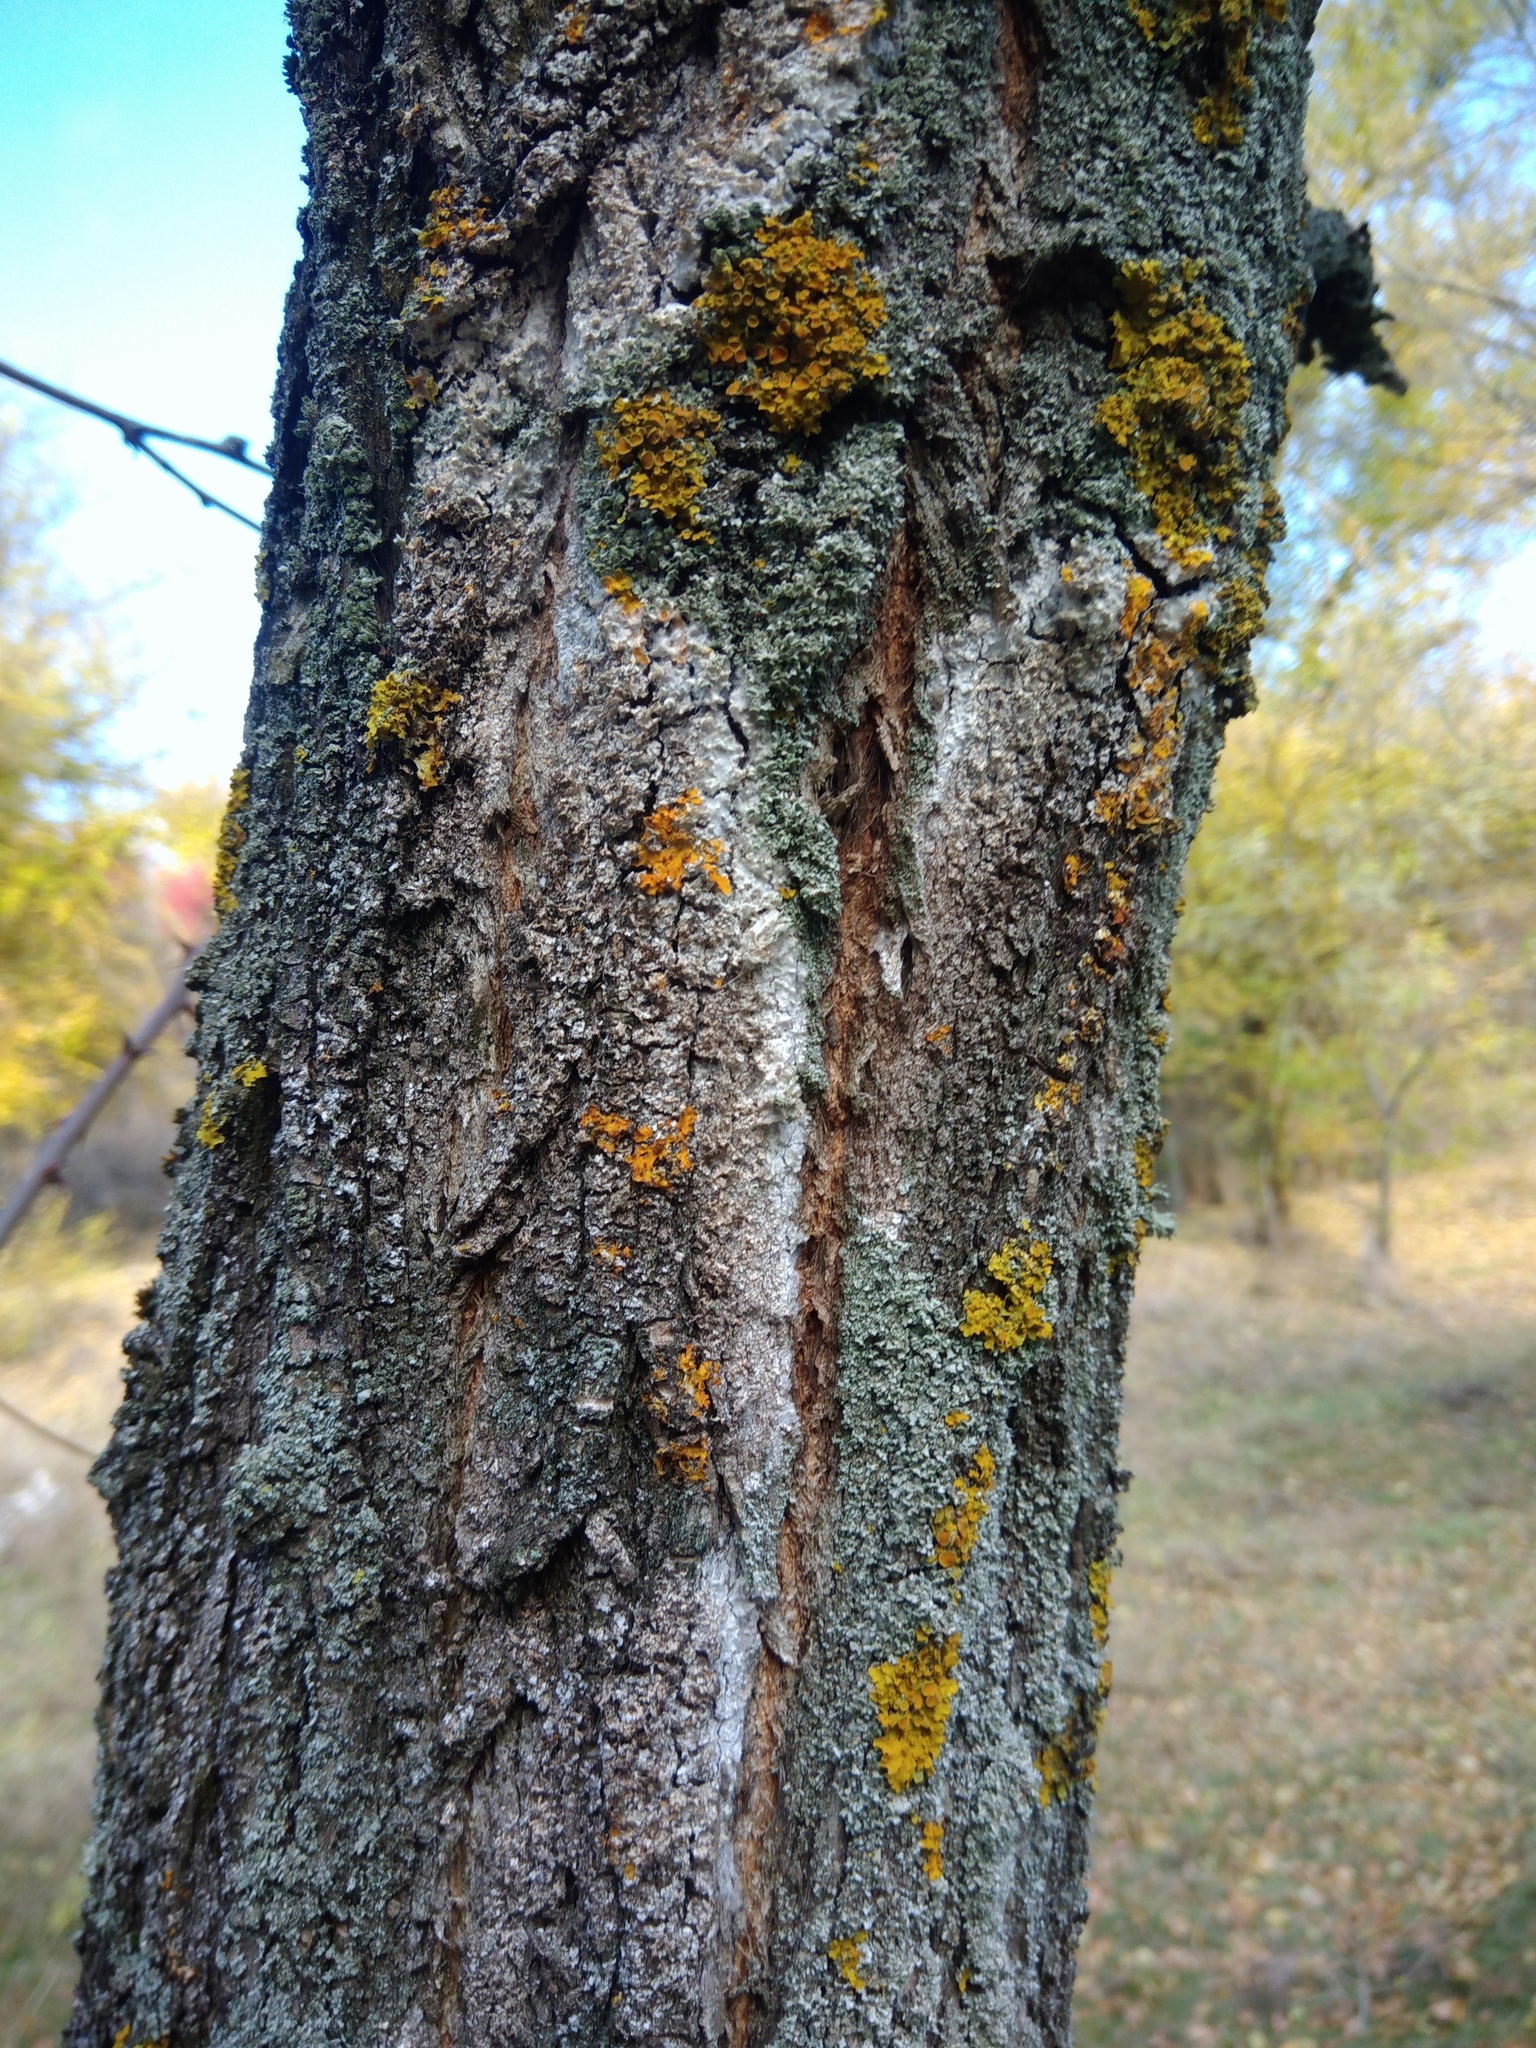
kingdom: Fungi
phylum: Basidiomycota
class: Agaricomycetes
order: Atheliales
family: Atheliaceae
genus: Athelia
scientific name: Athelia arachnoidea
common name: Candelabra duster
